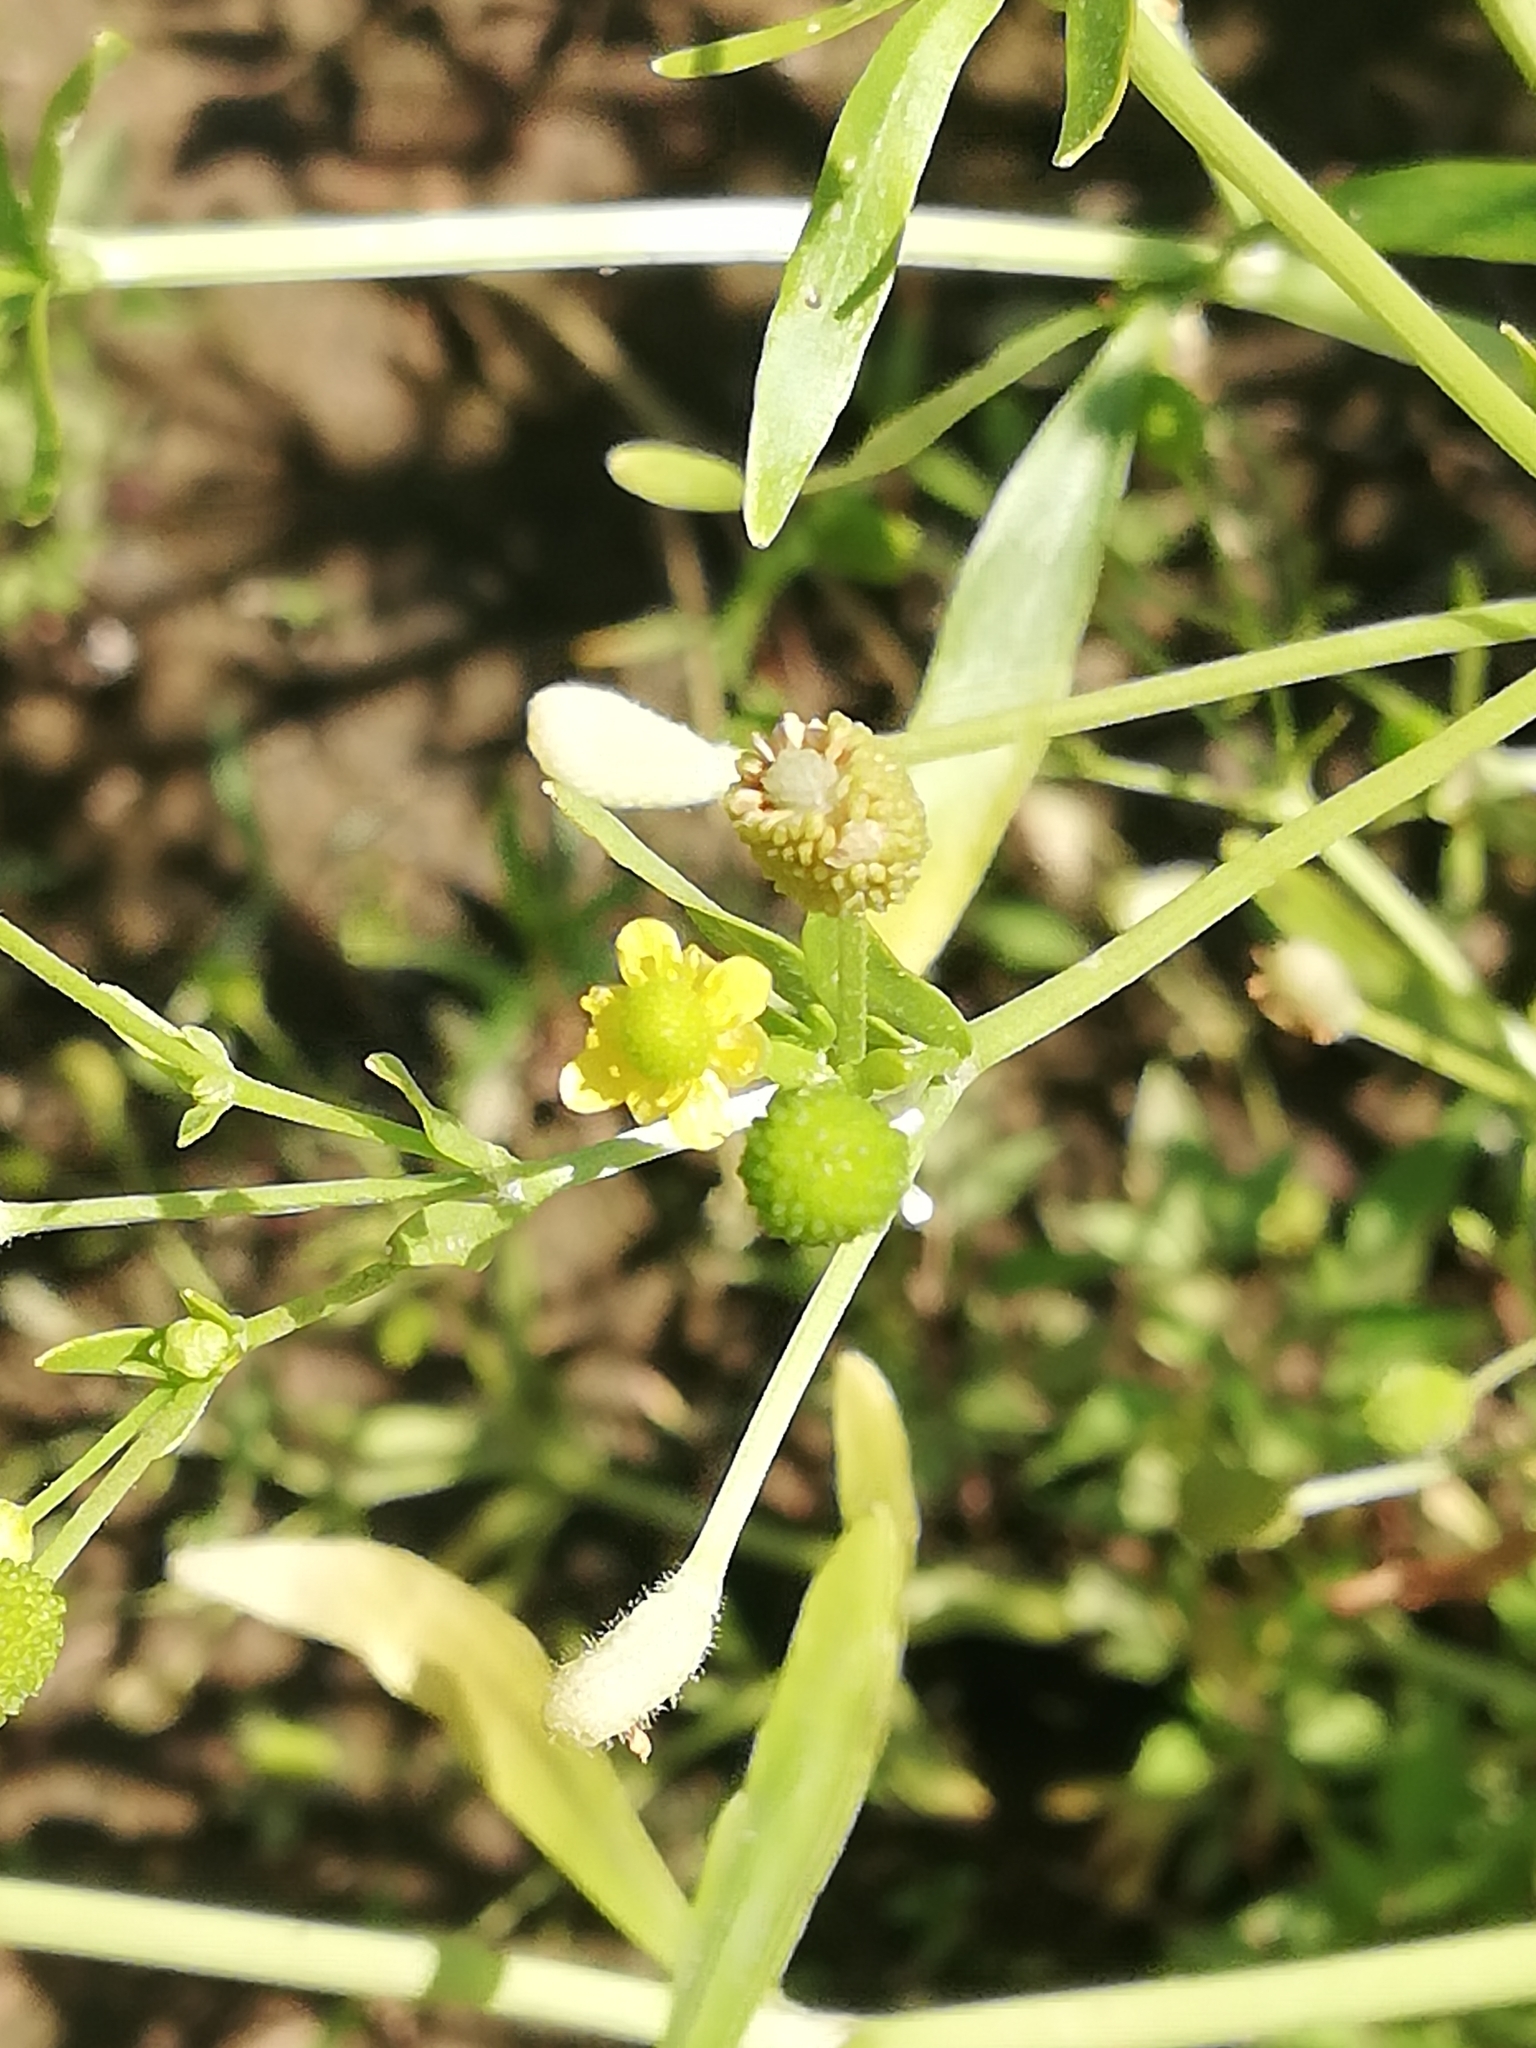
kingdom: Plantae
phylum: Tracheophyta
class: Magnoliopsida
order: Ranunculales
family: Ranunculaceae
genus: Ranunculus
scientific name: Ranunculus sceleratus
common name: Celery-leaved buttercup
